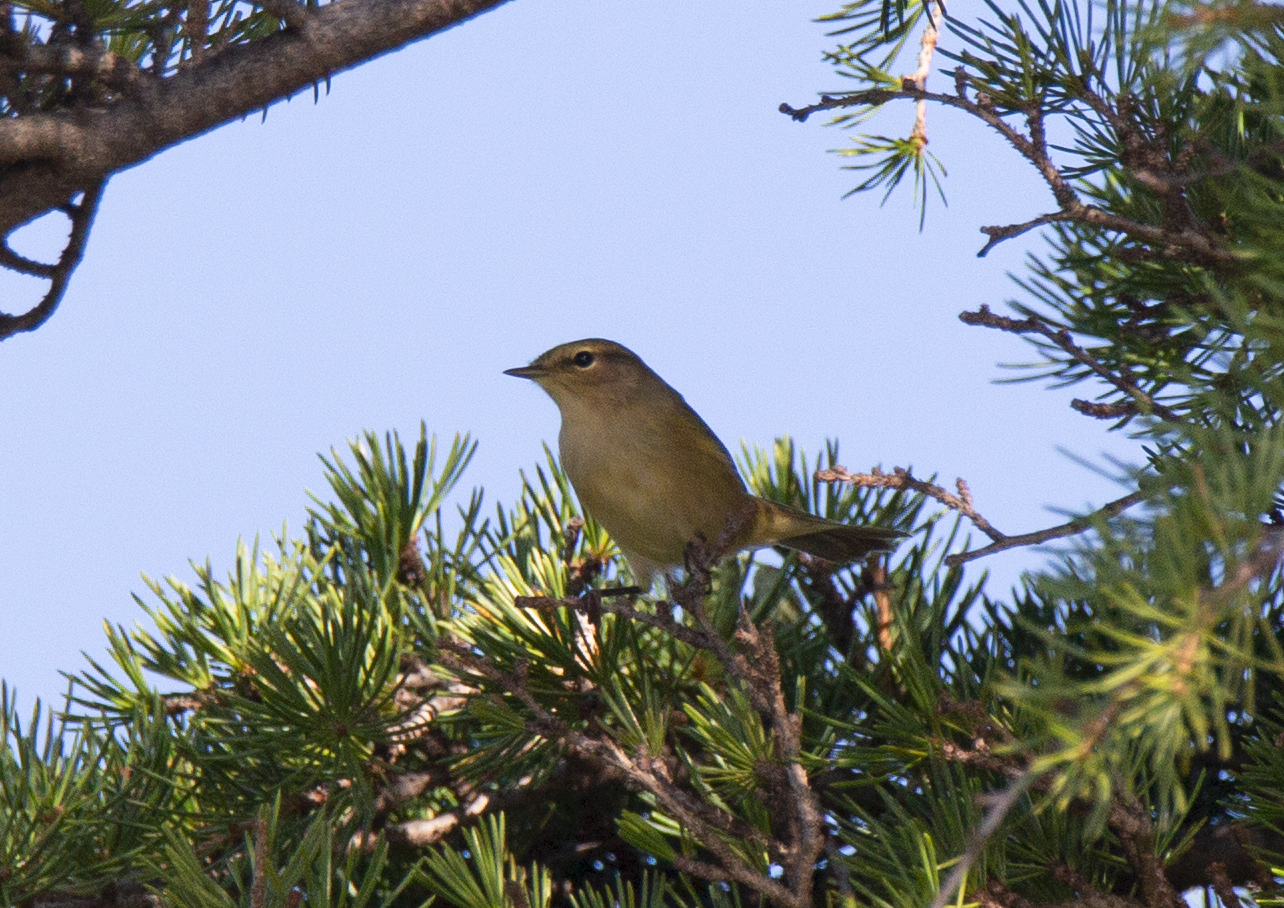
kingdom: Animalia
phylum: Chordata
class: Aves
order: Passeriformes
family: Phylloscopidae
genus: Phylloscopus
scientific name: Phylloscopus collybita
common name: Common chiffchaff
